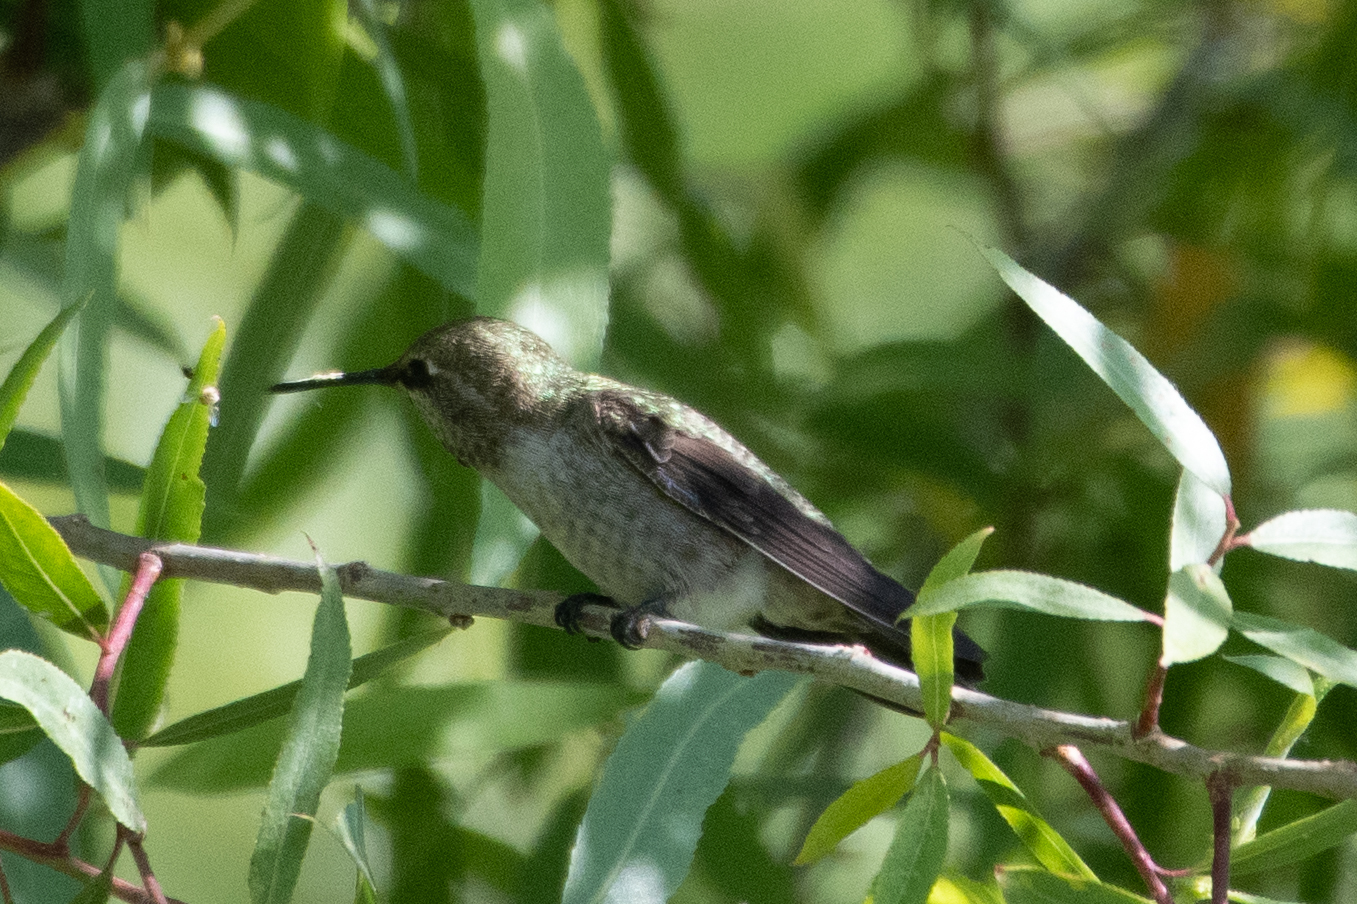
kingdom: Animalia
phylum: Chordata
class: Aves
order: Apodiformes
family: Trochilidae
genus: Calypte
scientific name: Calypte anna
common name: Anna's hummingbird
